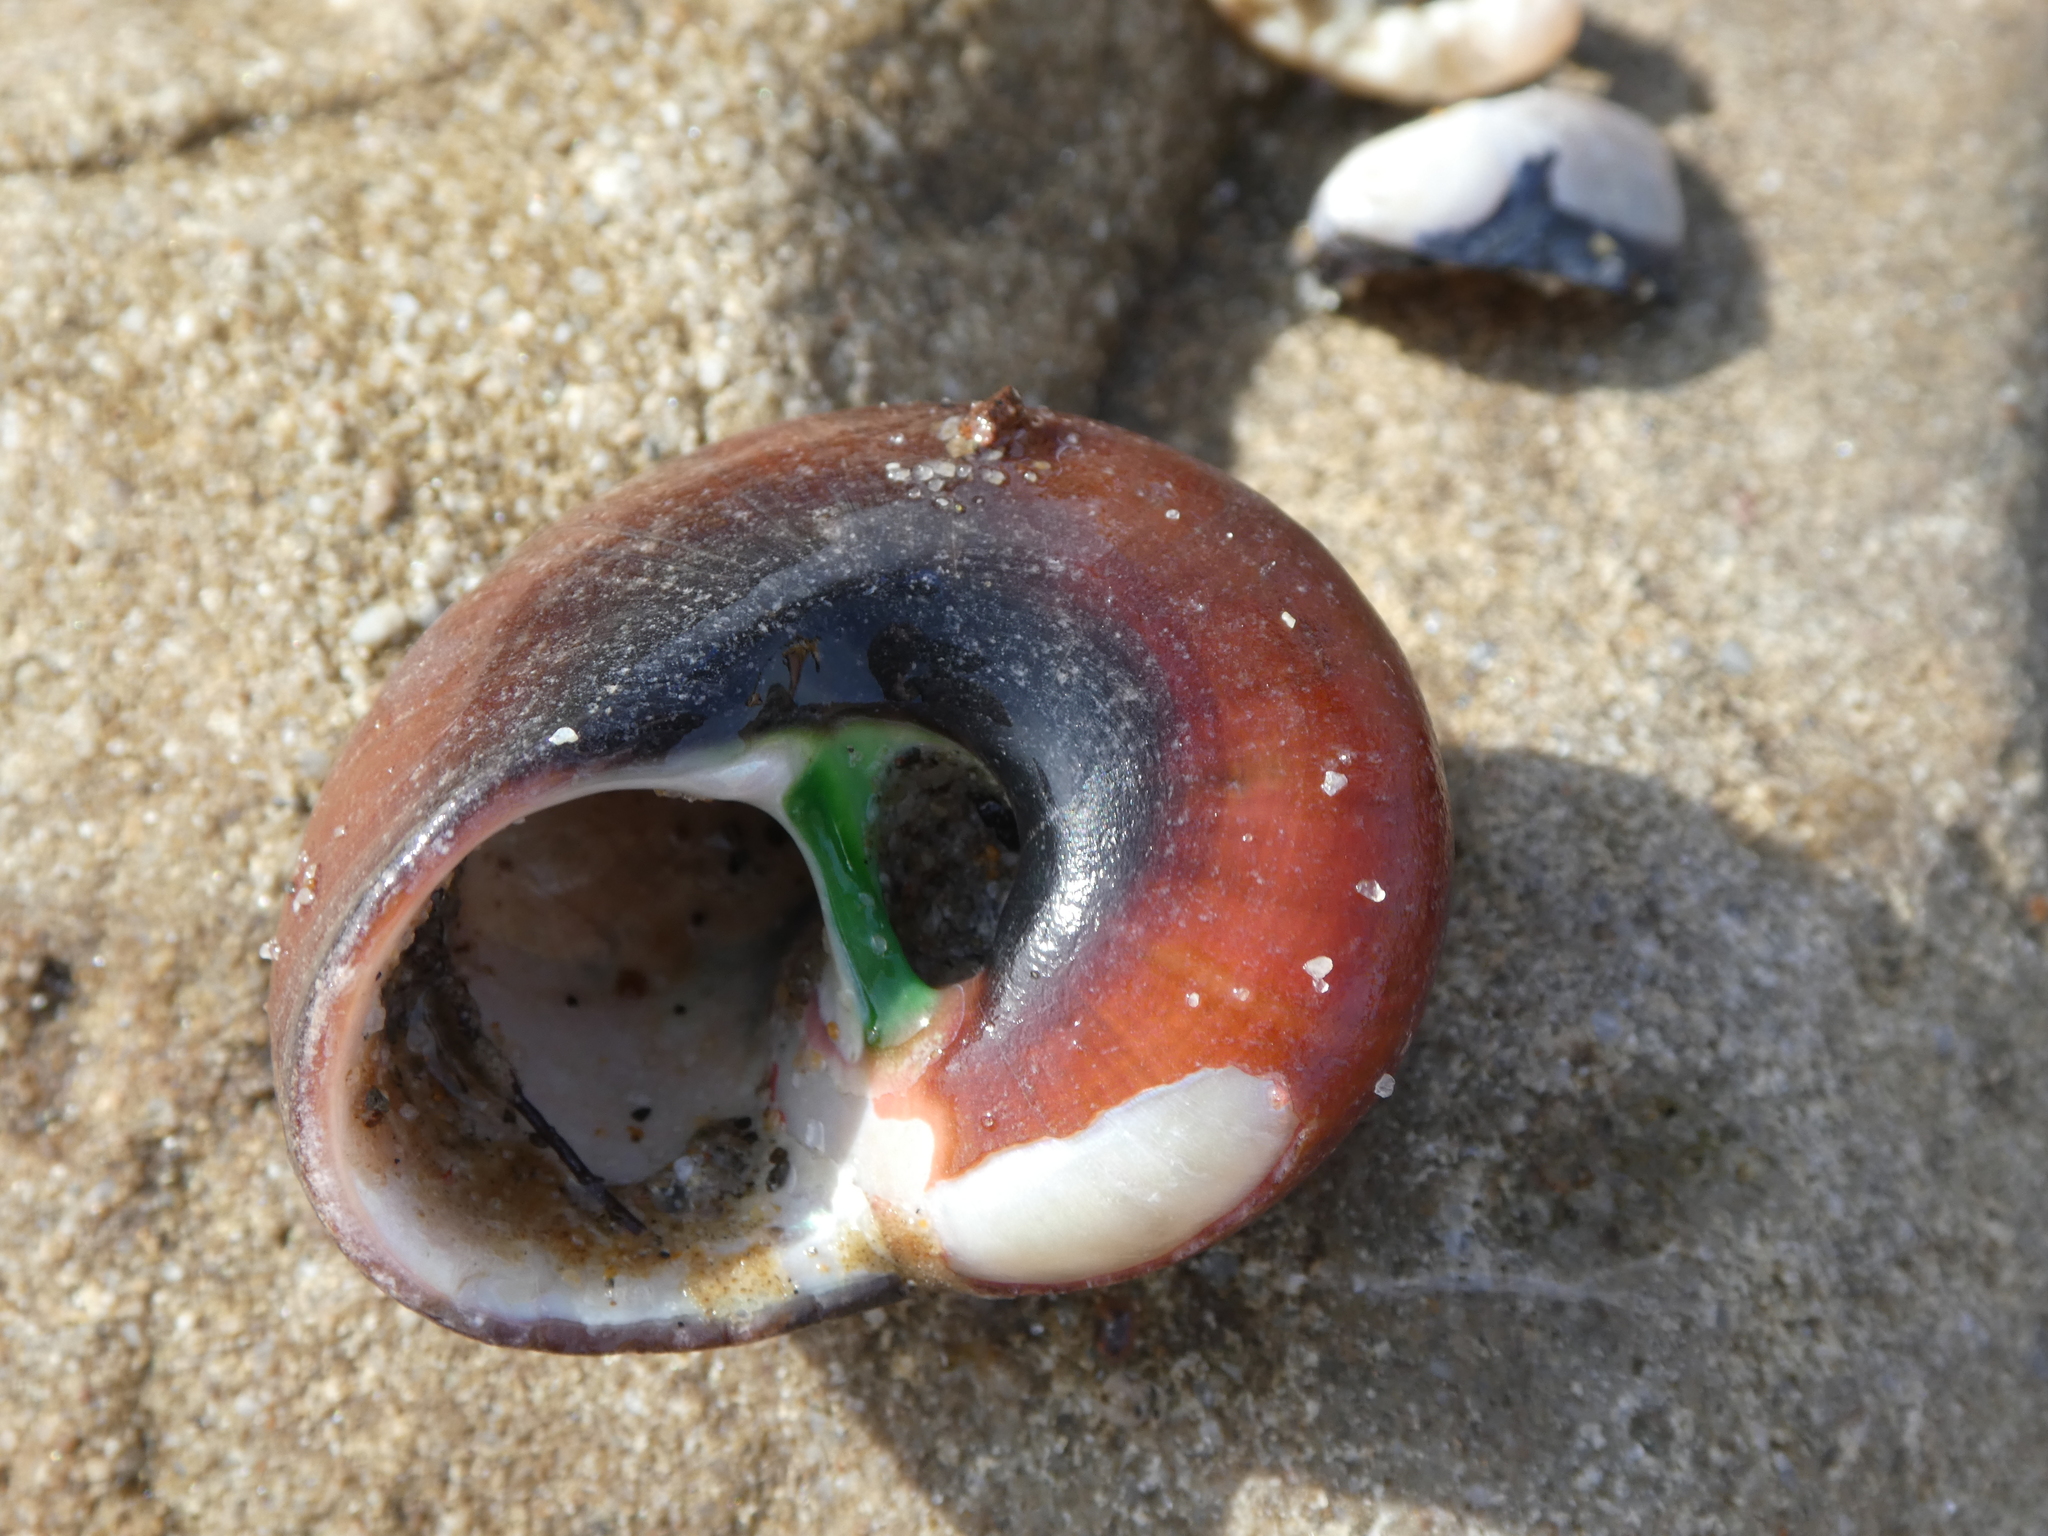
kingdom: Animalia
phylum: Mollusca
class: Gastropoda
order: Trochida
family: Tegulidae
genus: Norrisia
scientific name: Norrisia norrisii
